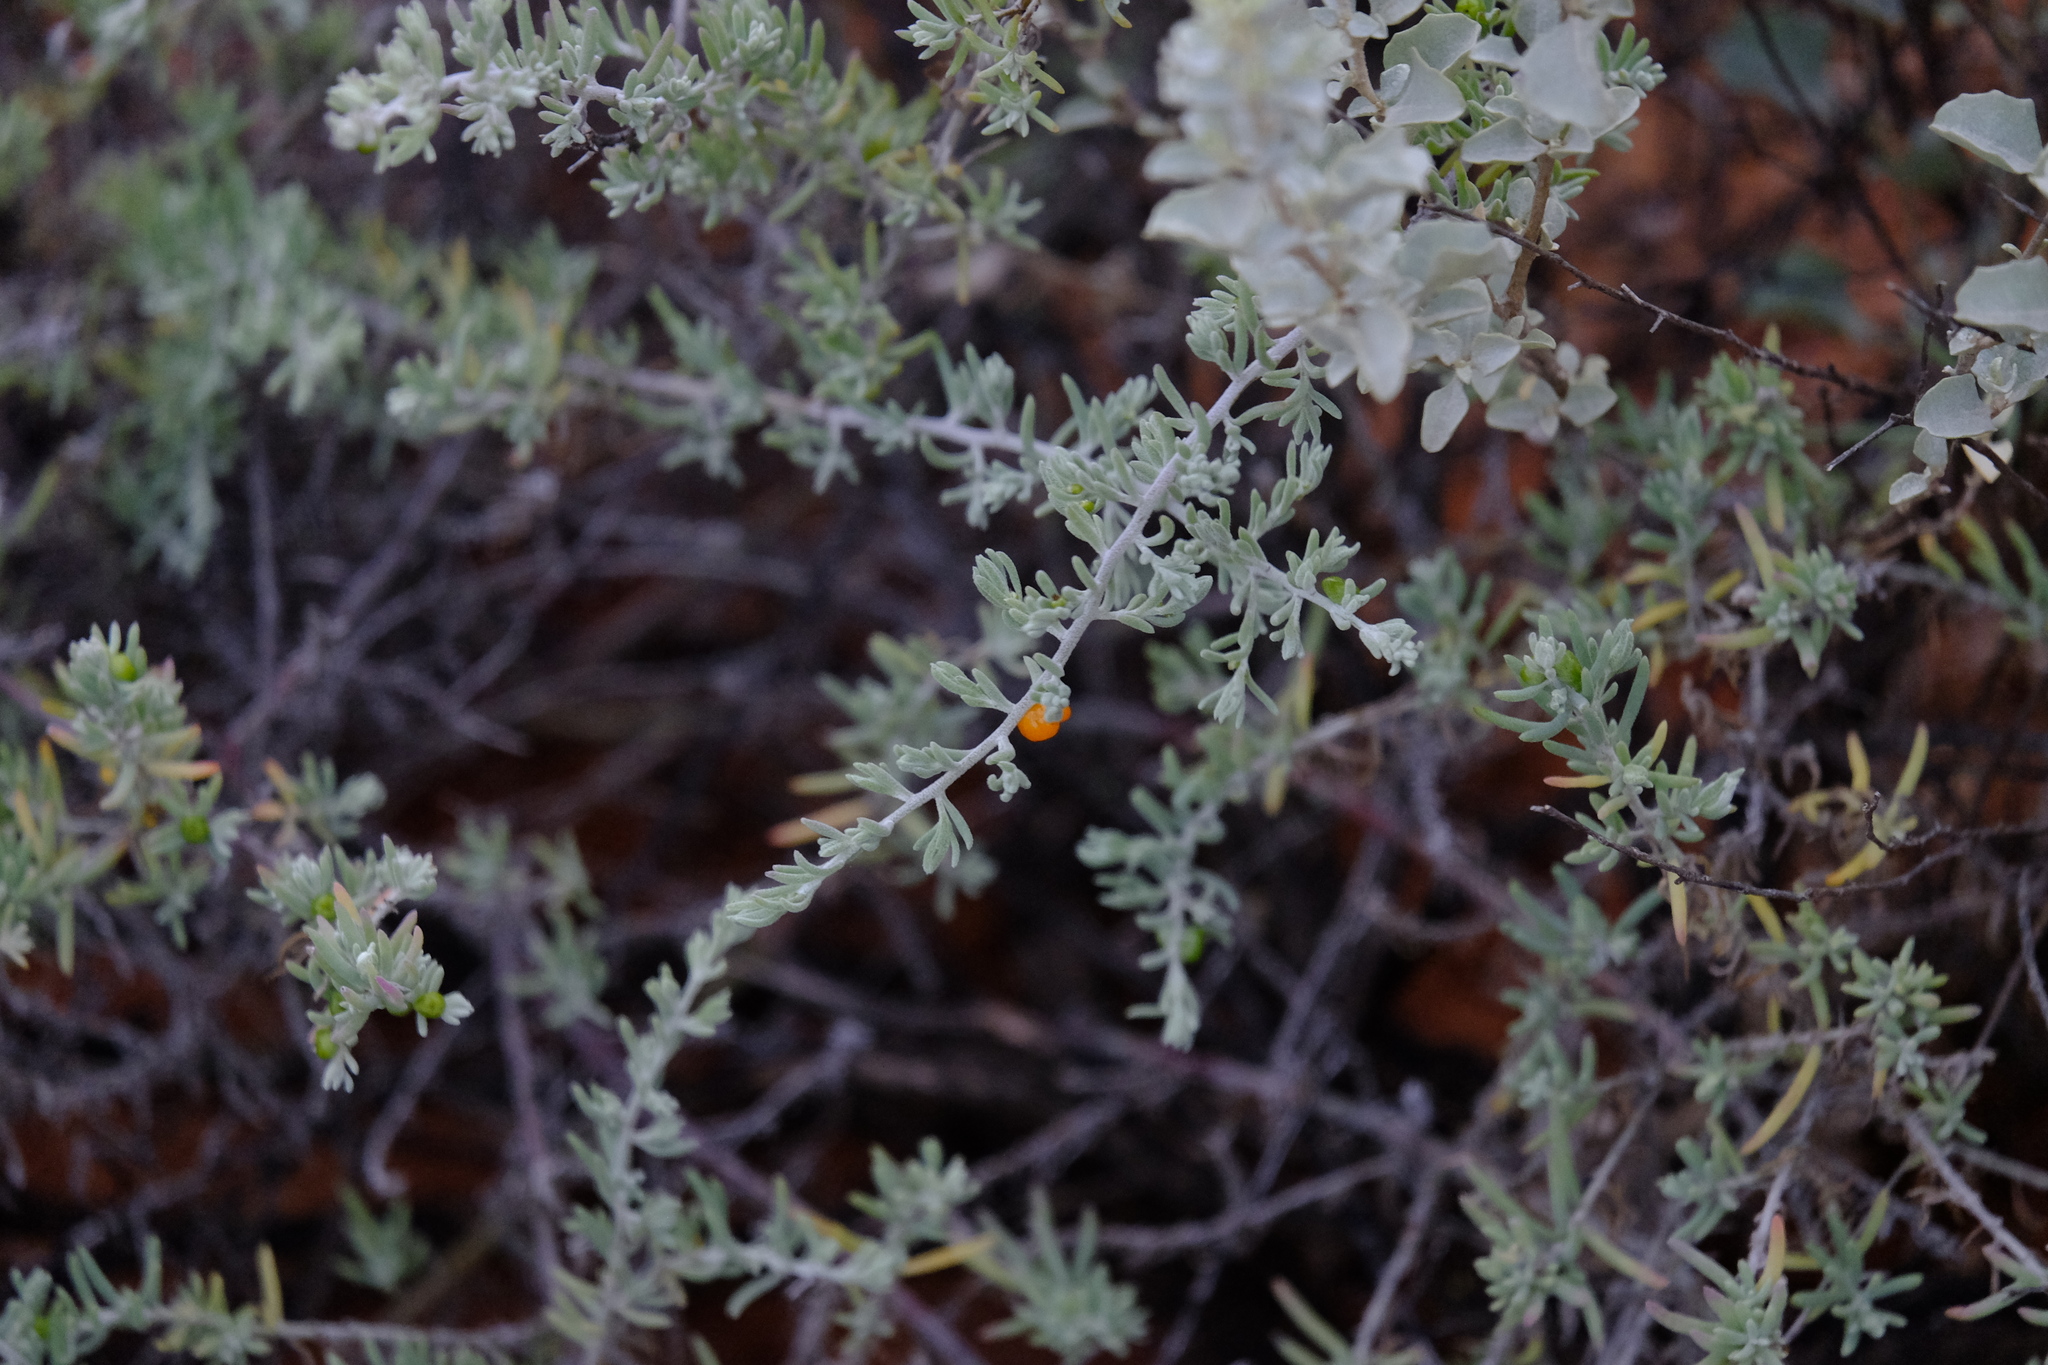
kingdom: Plantae
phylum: Tracheophyta
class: Magnoliopsida
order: Caryophyllales
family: Amaranthaceae
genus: Enchylaena
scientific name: Enchylaena tomentosa
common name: Ruby saltbush
